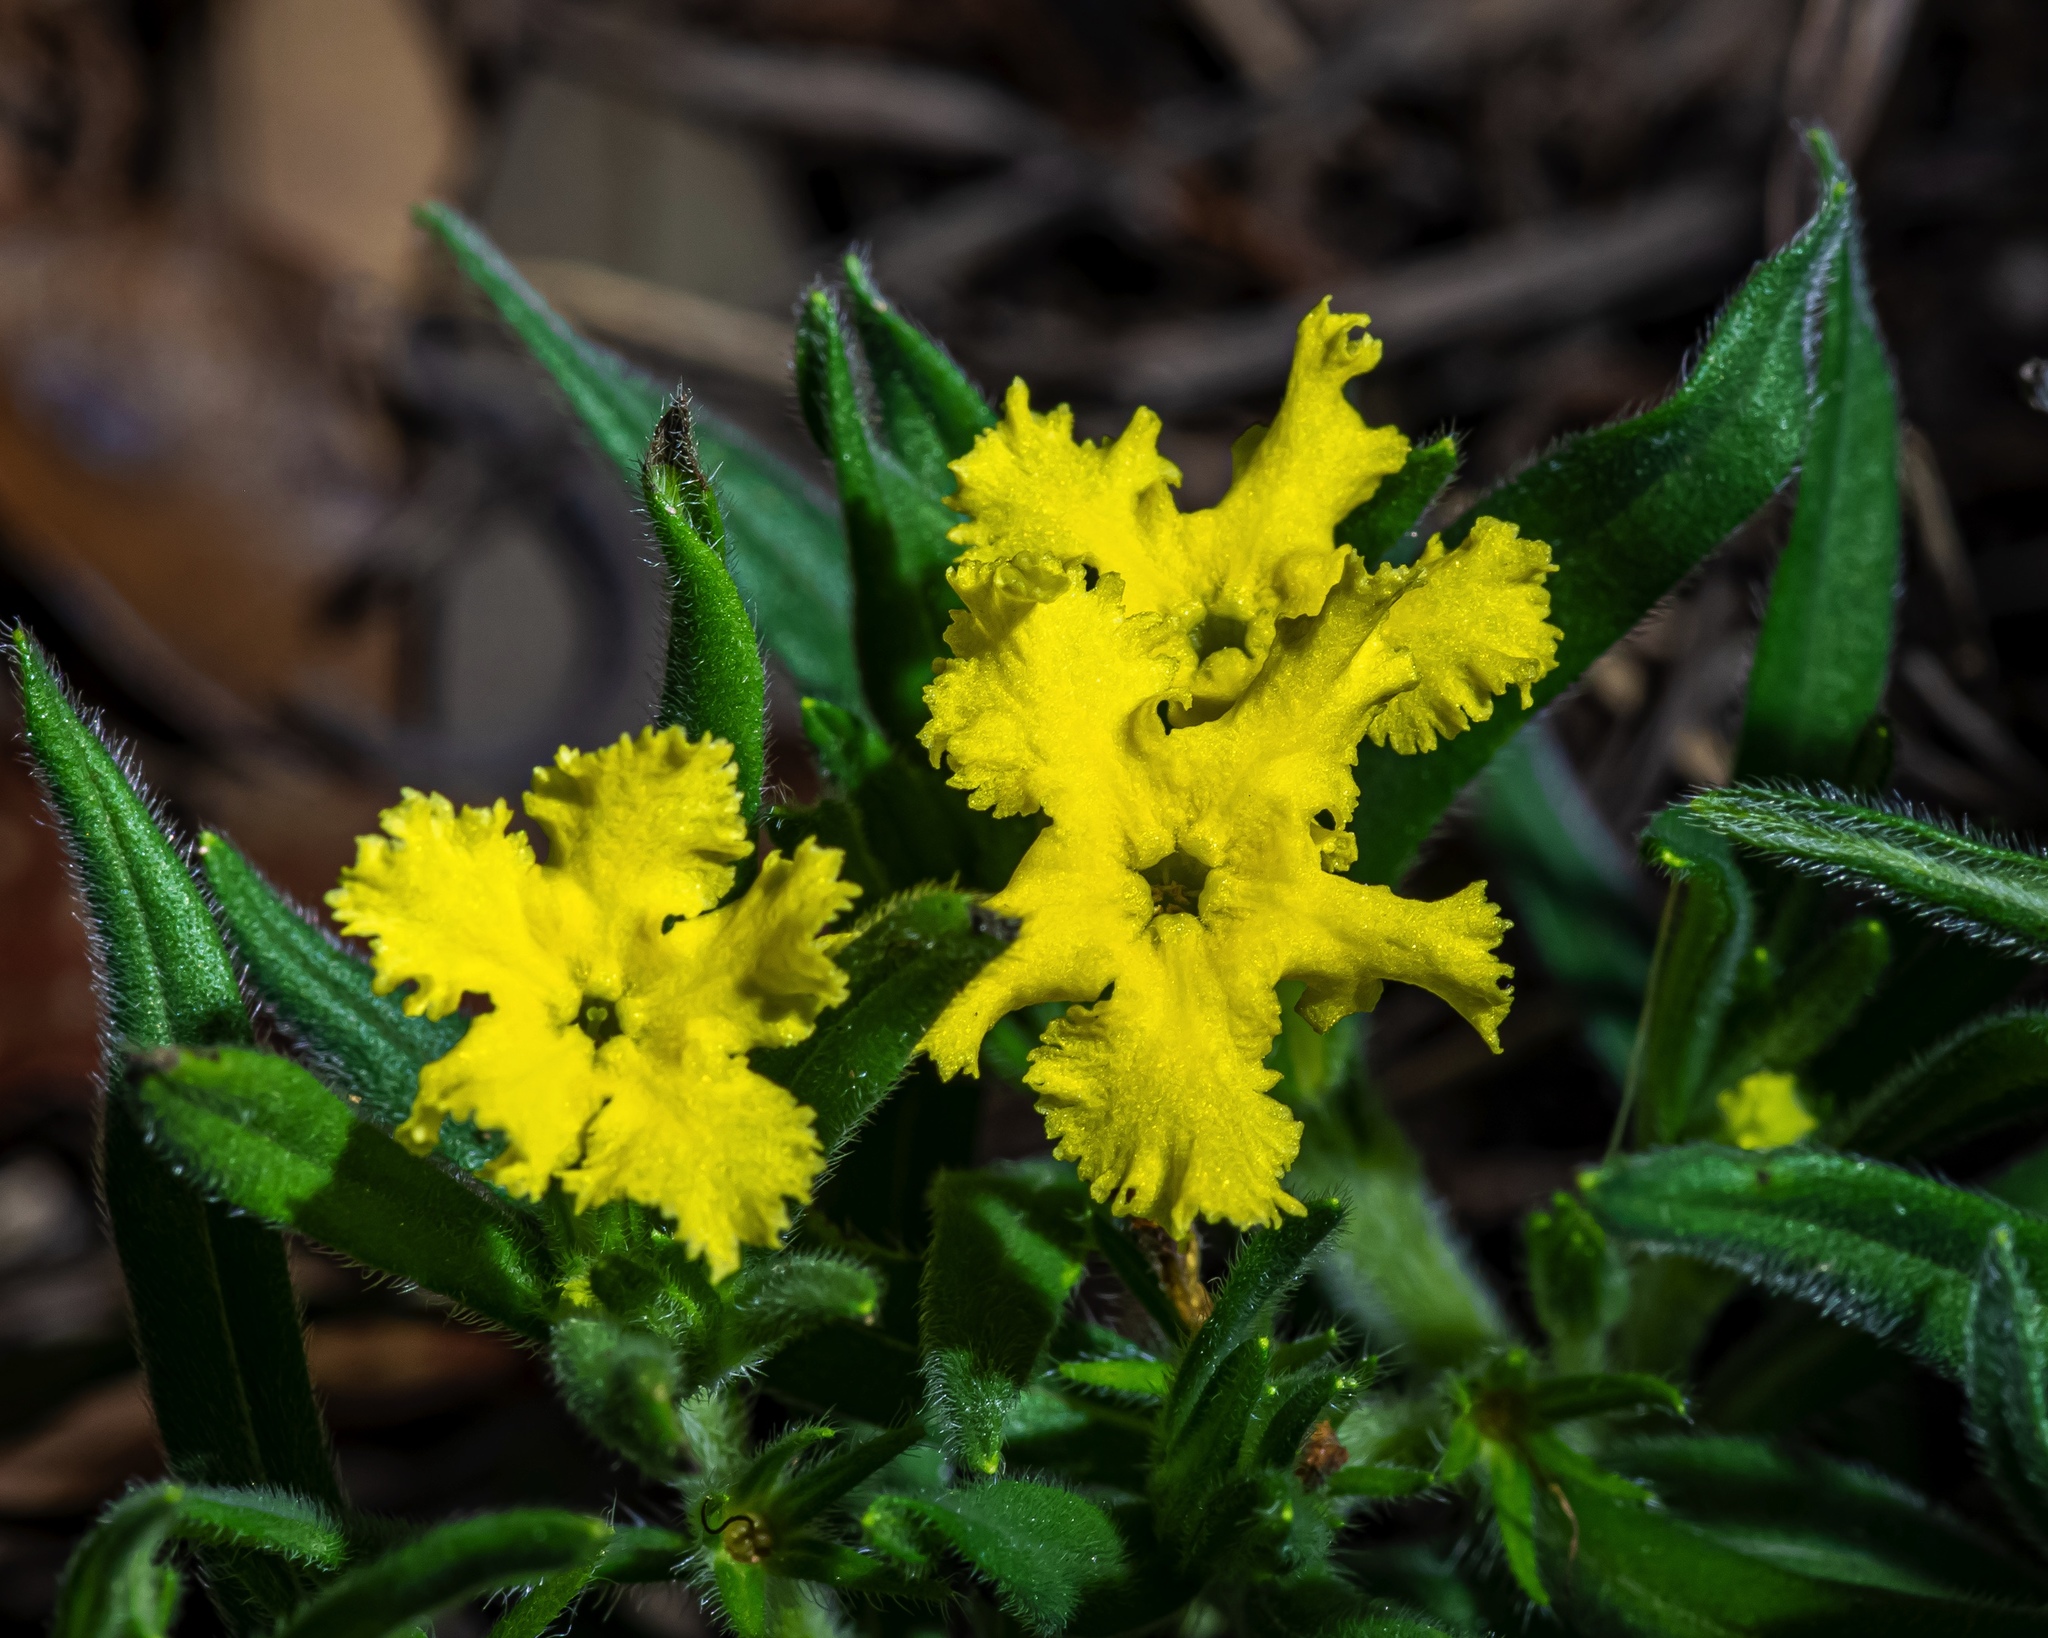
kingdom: Plantae
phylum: Tracheophyta
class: Magnoliopsida
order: Boraginales
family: Boraginaceae
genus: Lithospermum
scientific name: Lithospermum incisum
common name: Fringed gromwell
